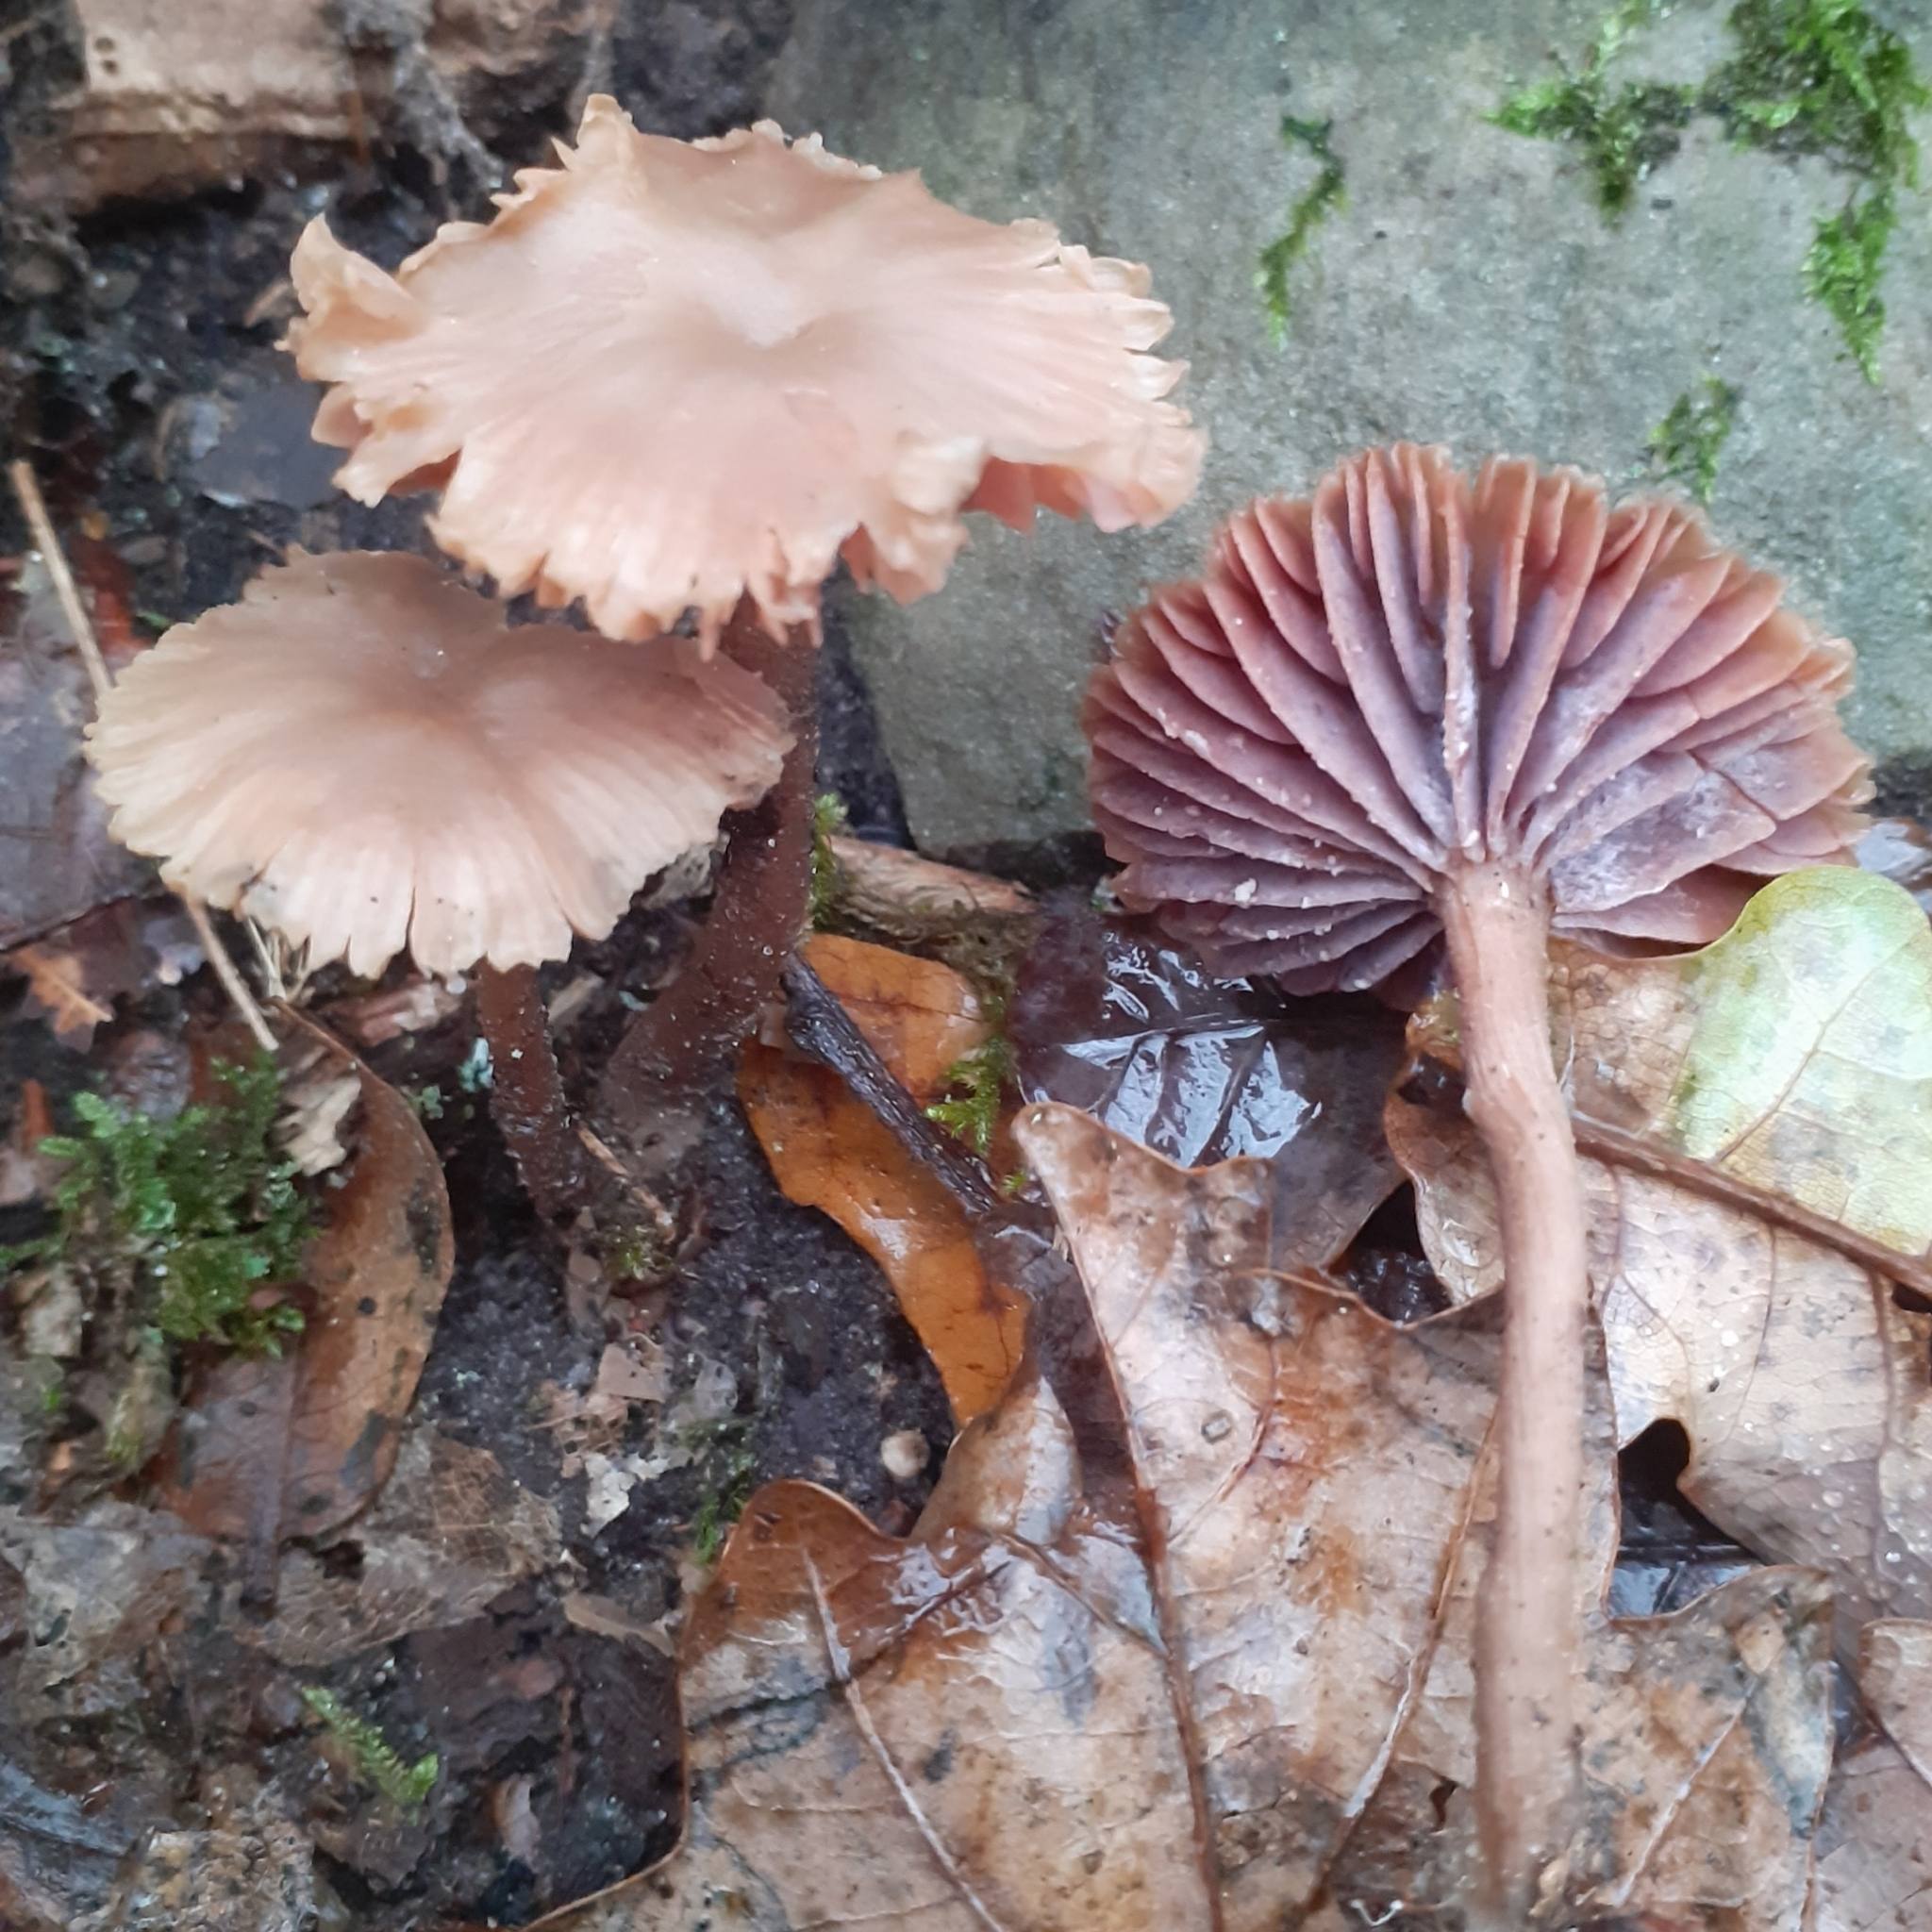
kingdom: Fungi
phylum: Basidiomycota
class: Agaricomycetes
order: Agaricales
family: Hydnangiaceae
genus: Laccaria
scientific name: Laccaria amethystina
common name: Amethyst deceiver
